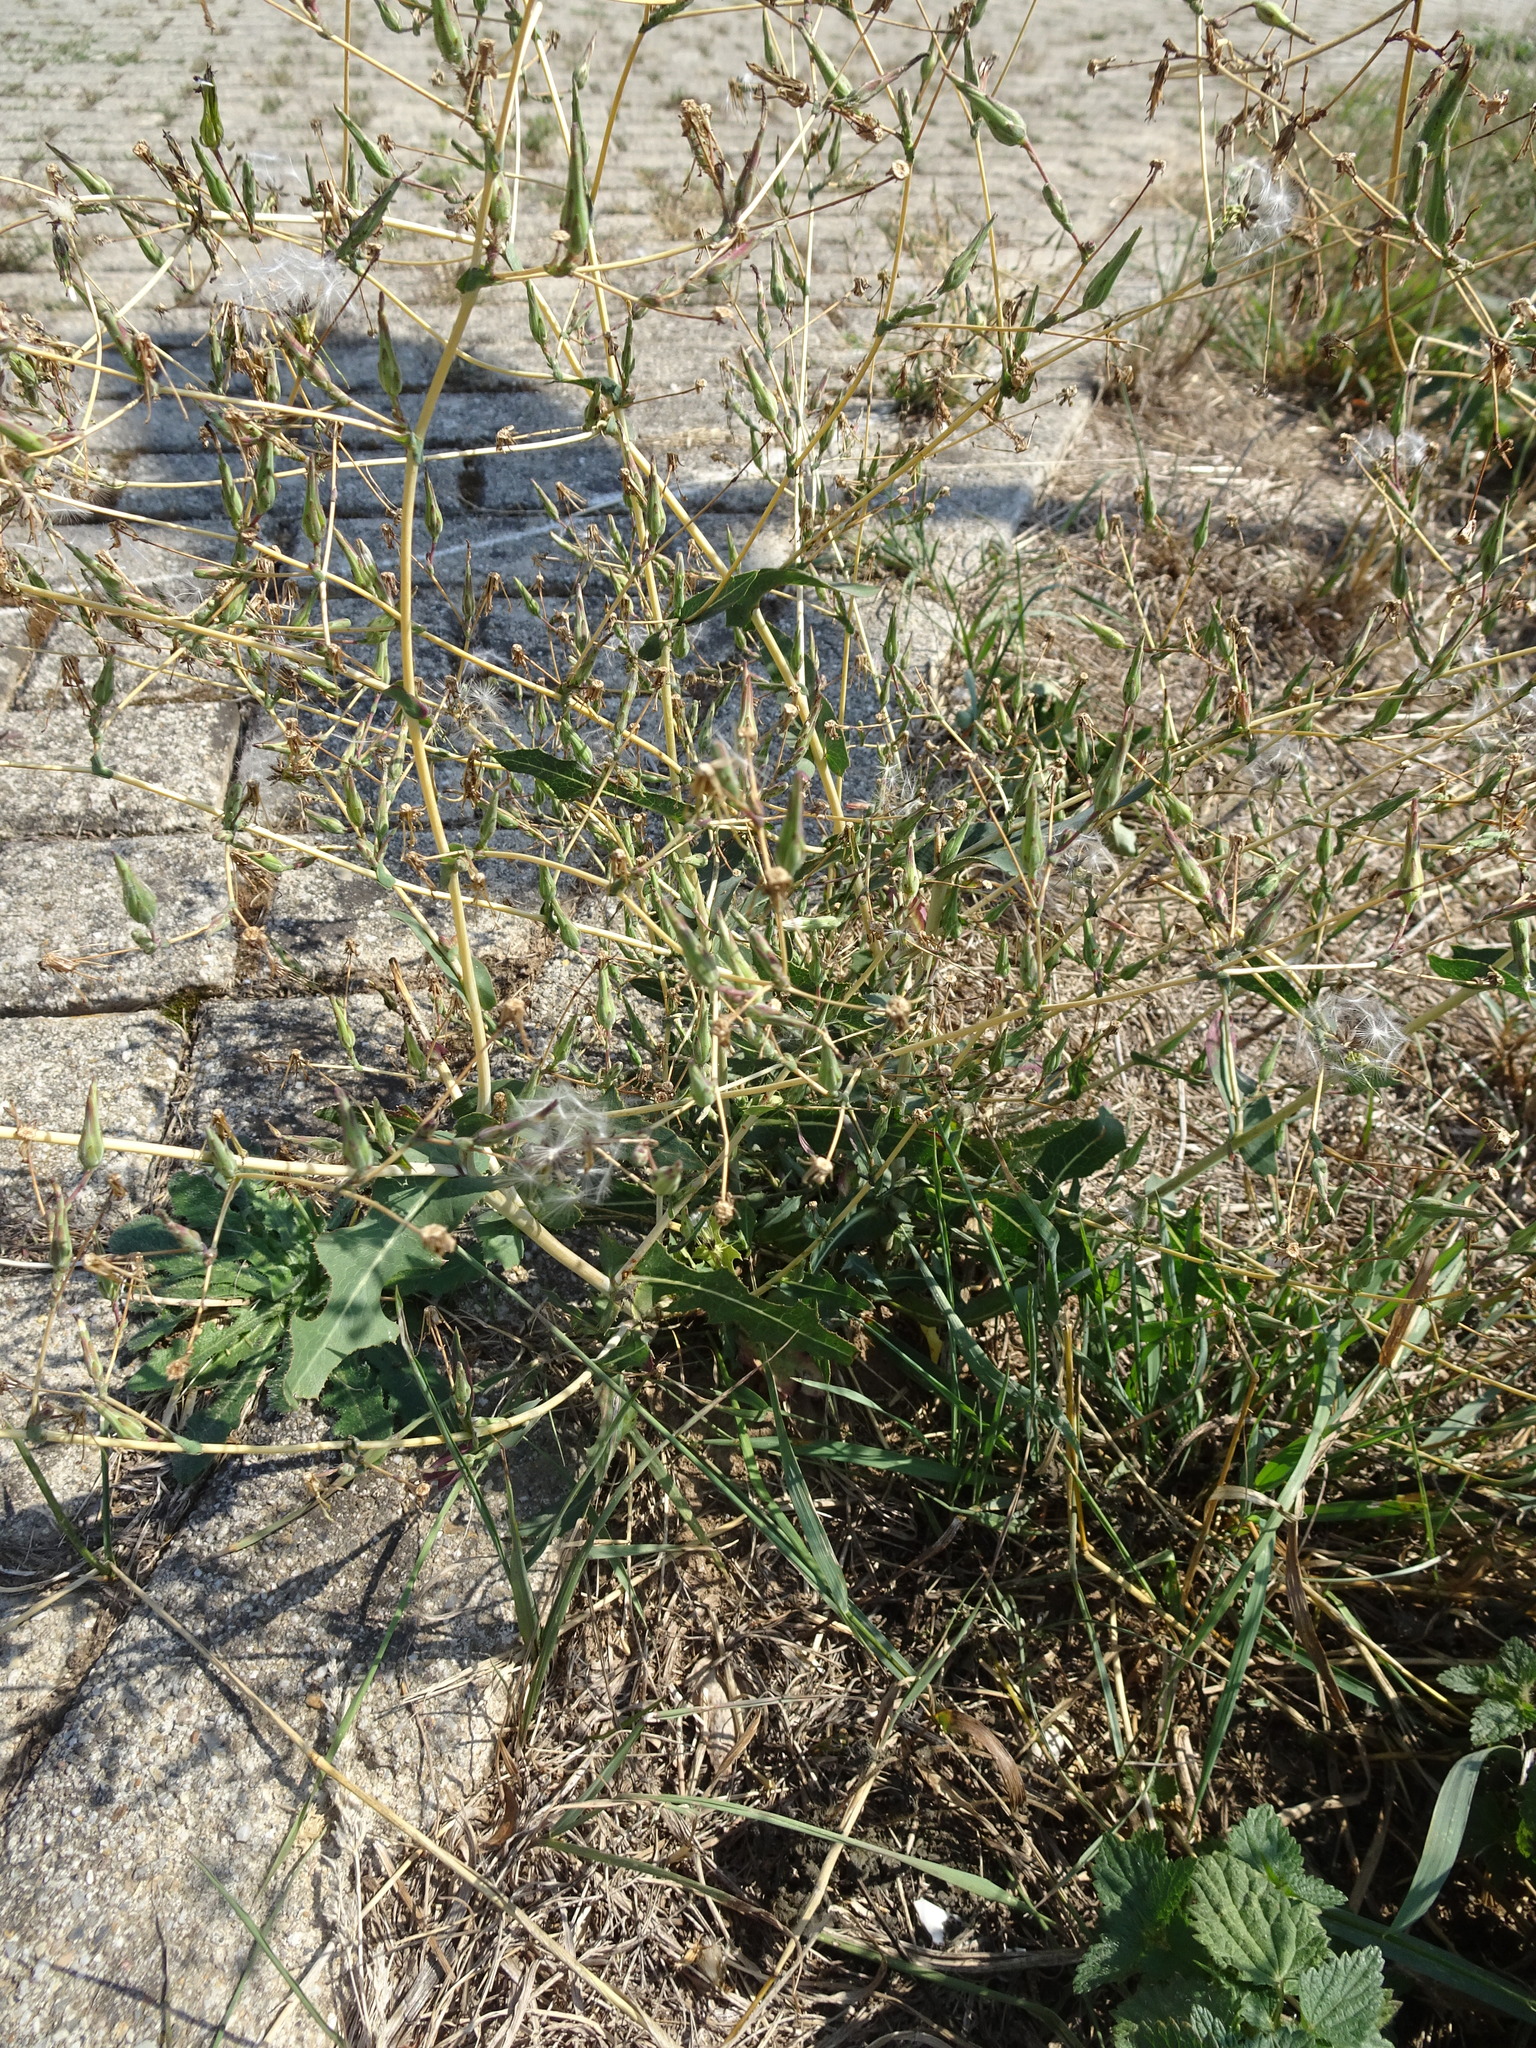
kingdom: Plantae
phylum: Tracheophyta
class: Magnoliopsida
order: Asterales
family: Asteraceae
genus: Lactuca
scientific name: Lactuca serriola
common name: Prickly lettuce
